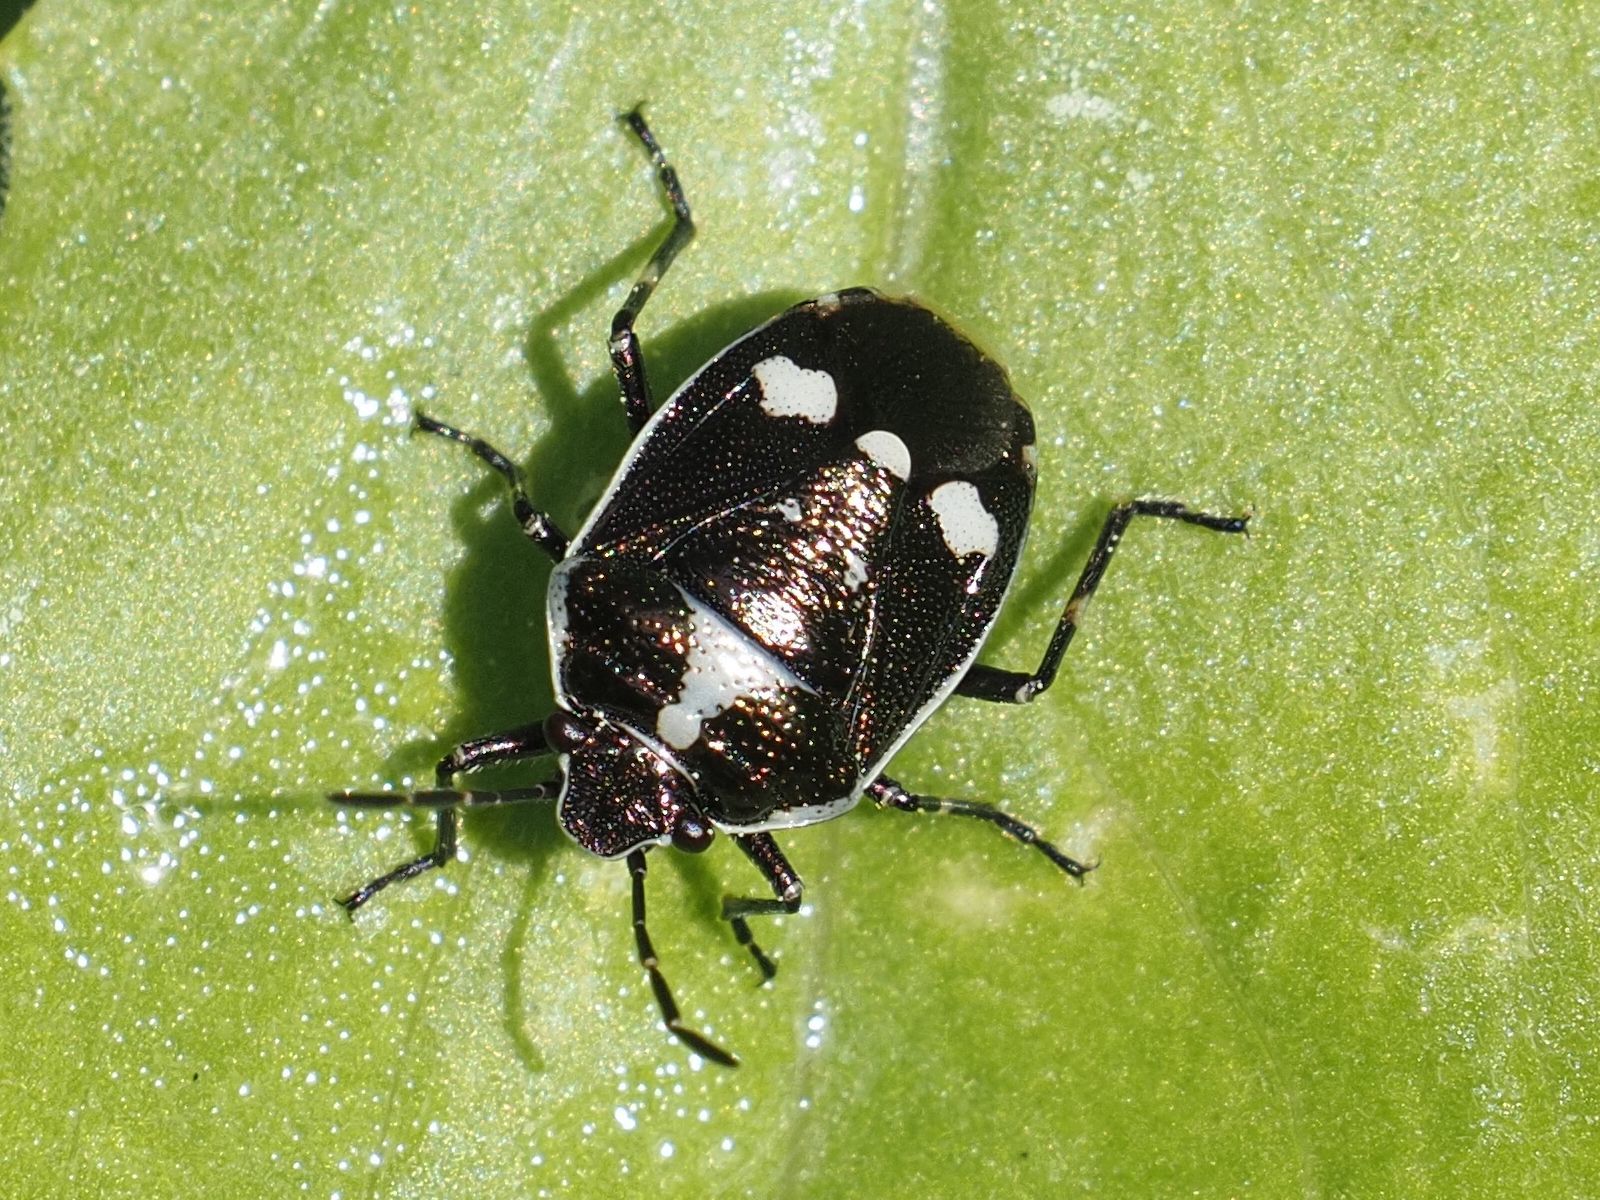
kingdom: Animalia
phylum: Arthropoda
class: Insecta
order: Hemiptera
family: Pentatomidae
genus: Eurydema
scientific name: Eurydema oleracea
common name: Cabbage bug
